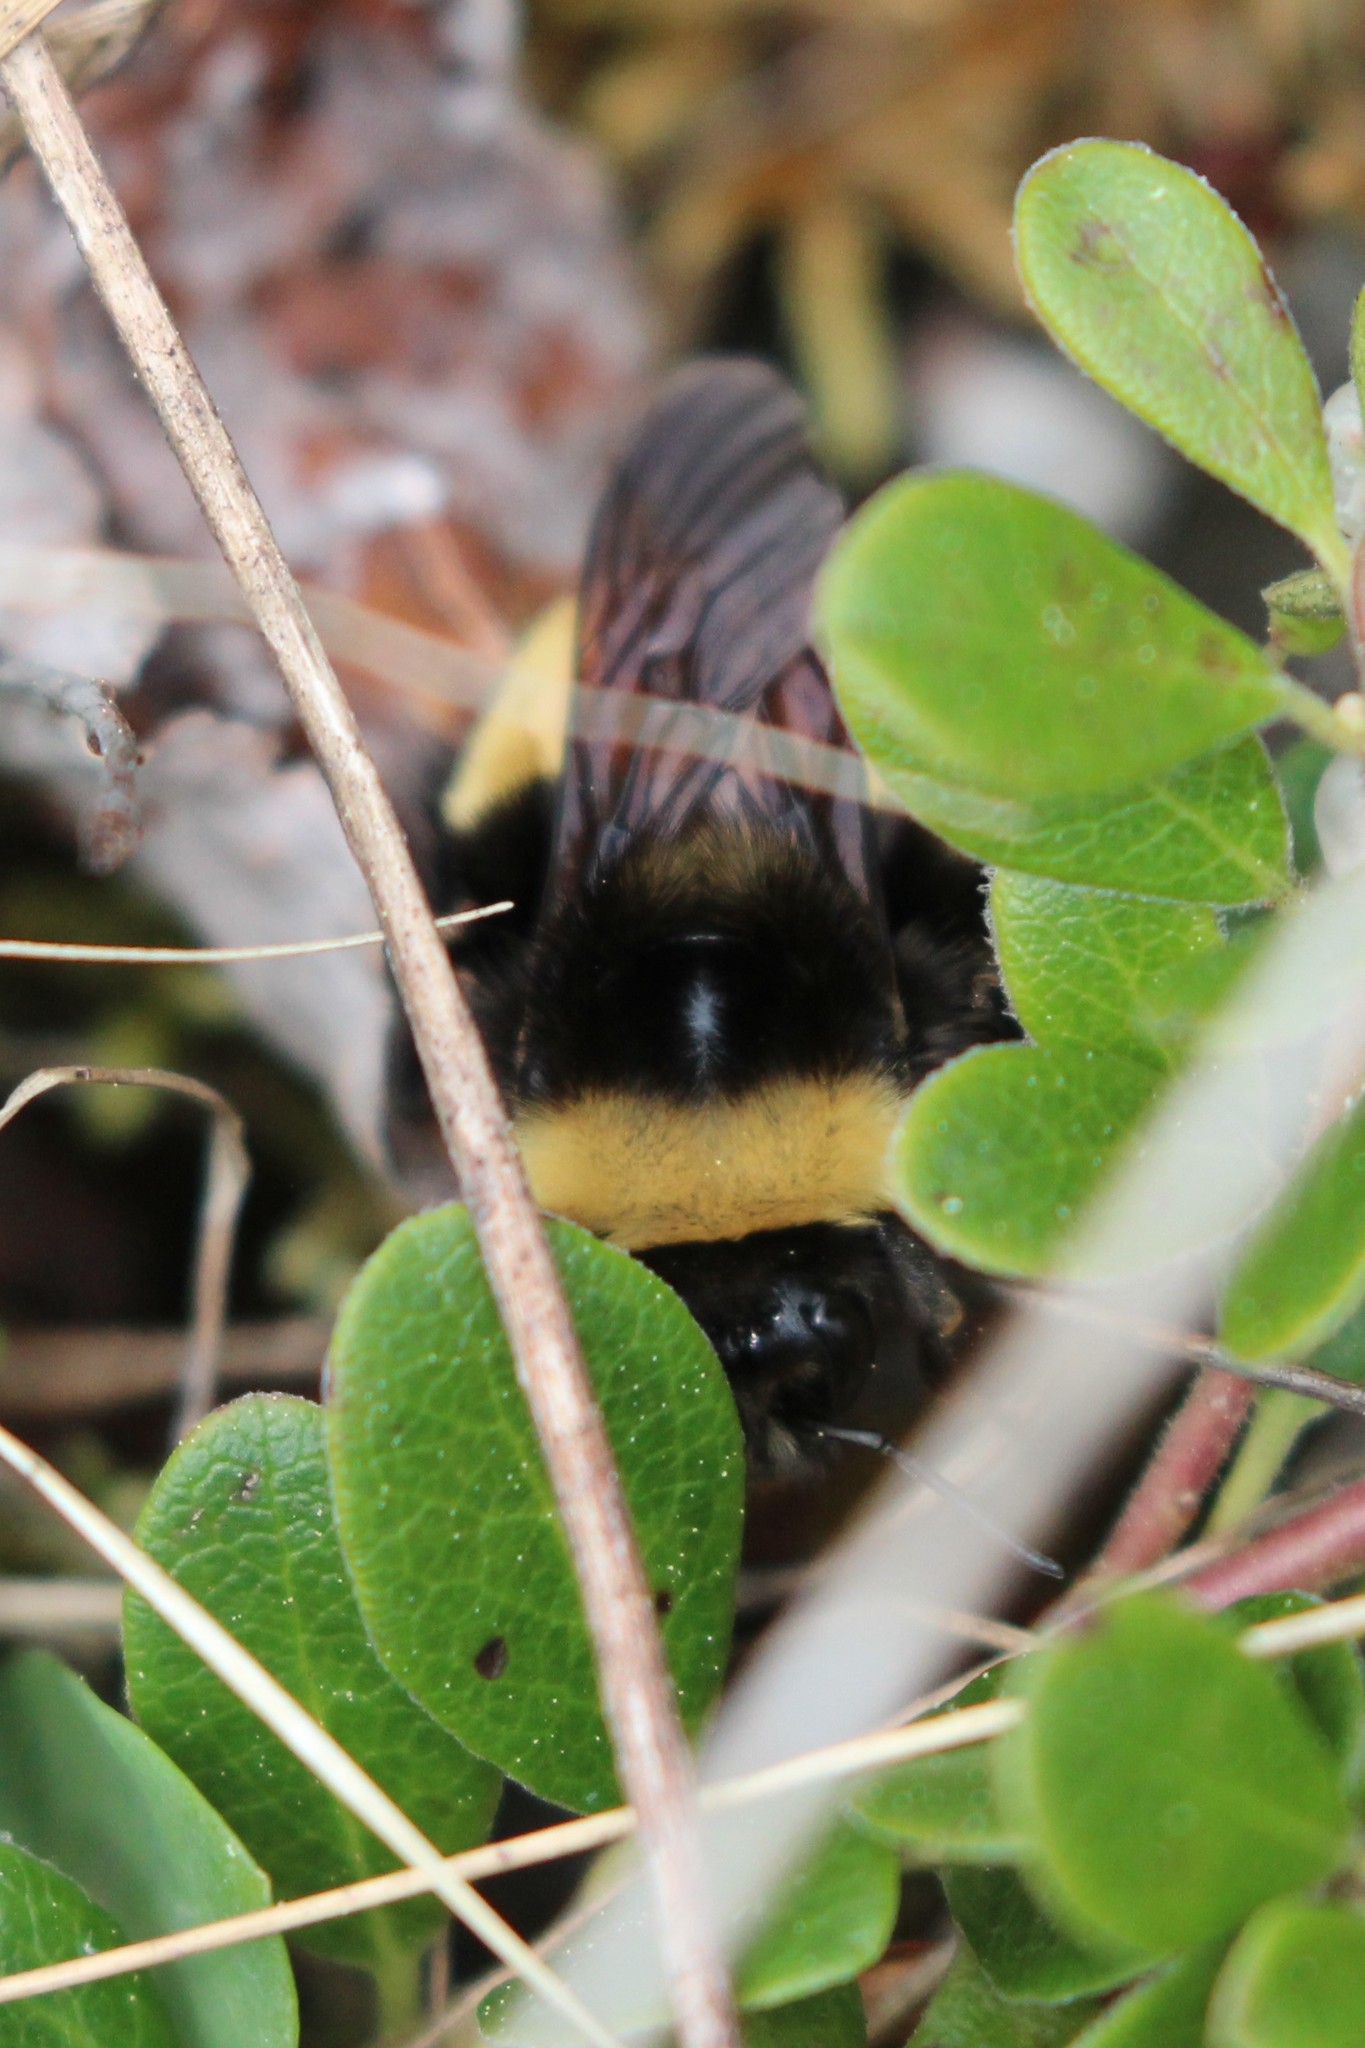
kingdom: Animalia
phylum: Arthropoda
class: Insecta
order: Hymenoptera
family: Apidae
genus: Bombus
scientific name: Bombus terricola
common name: Yellow-banded bumble bee
